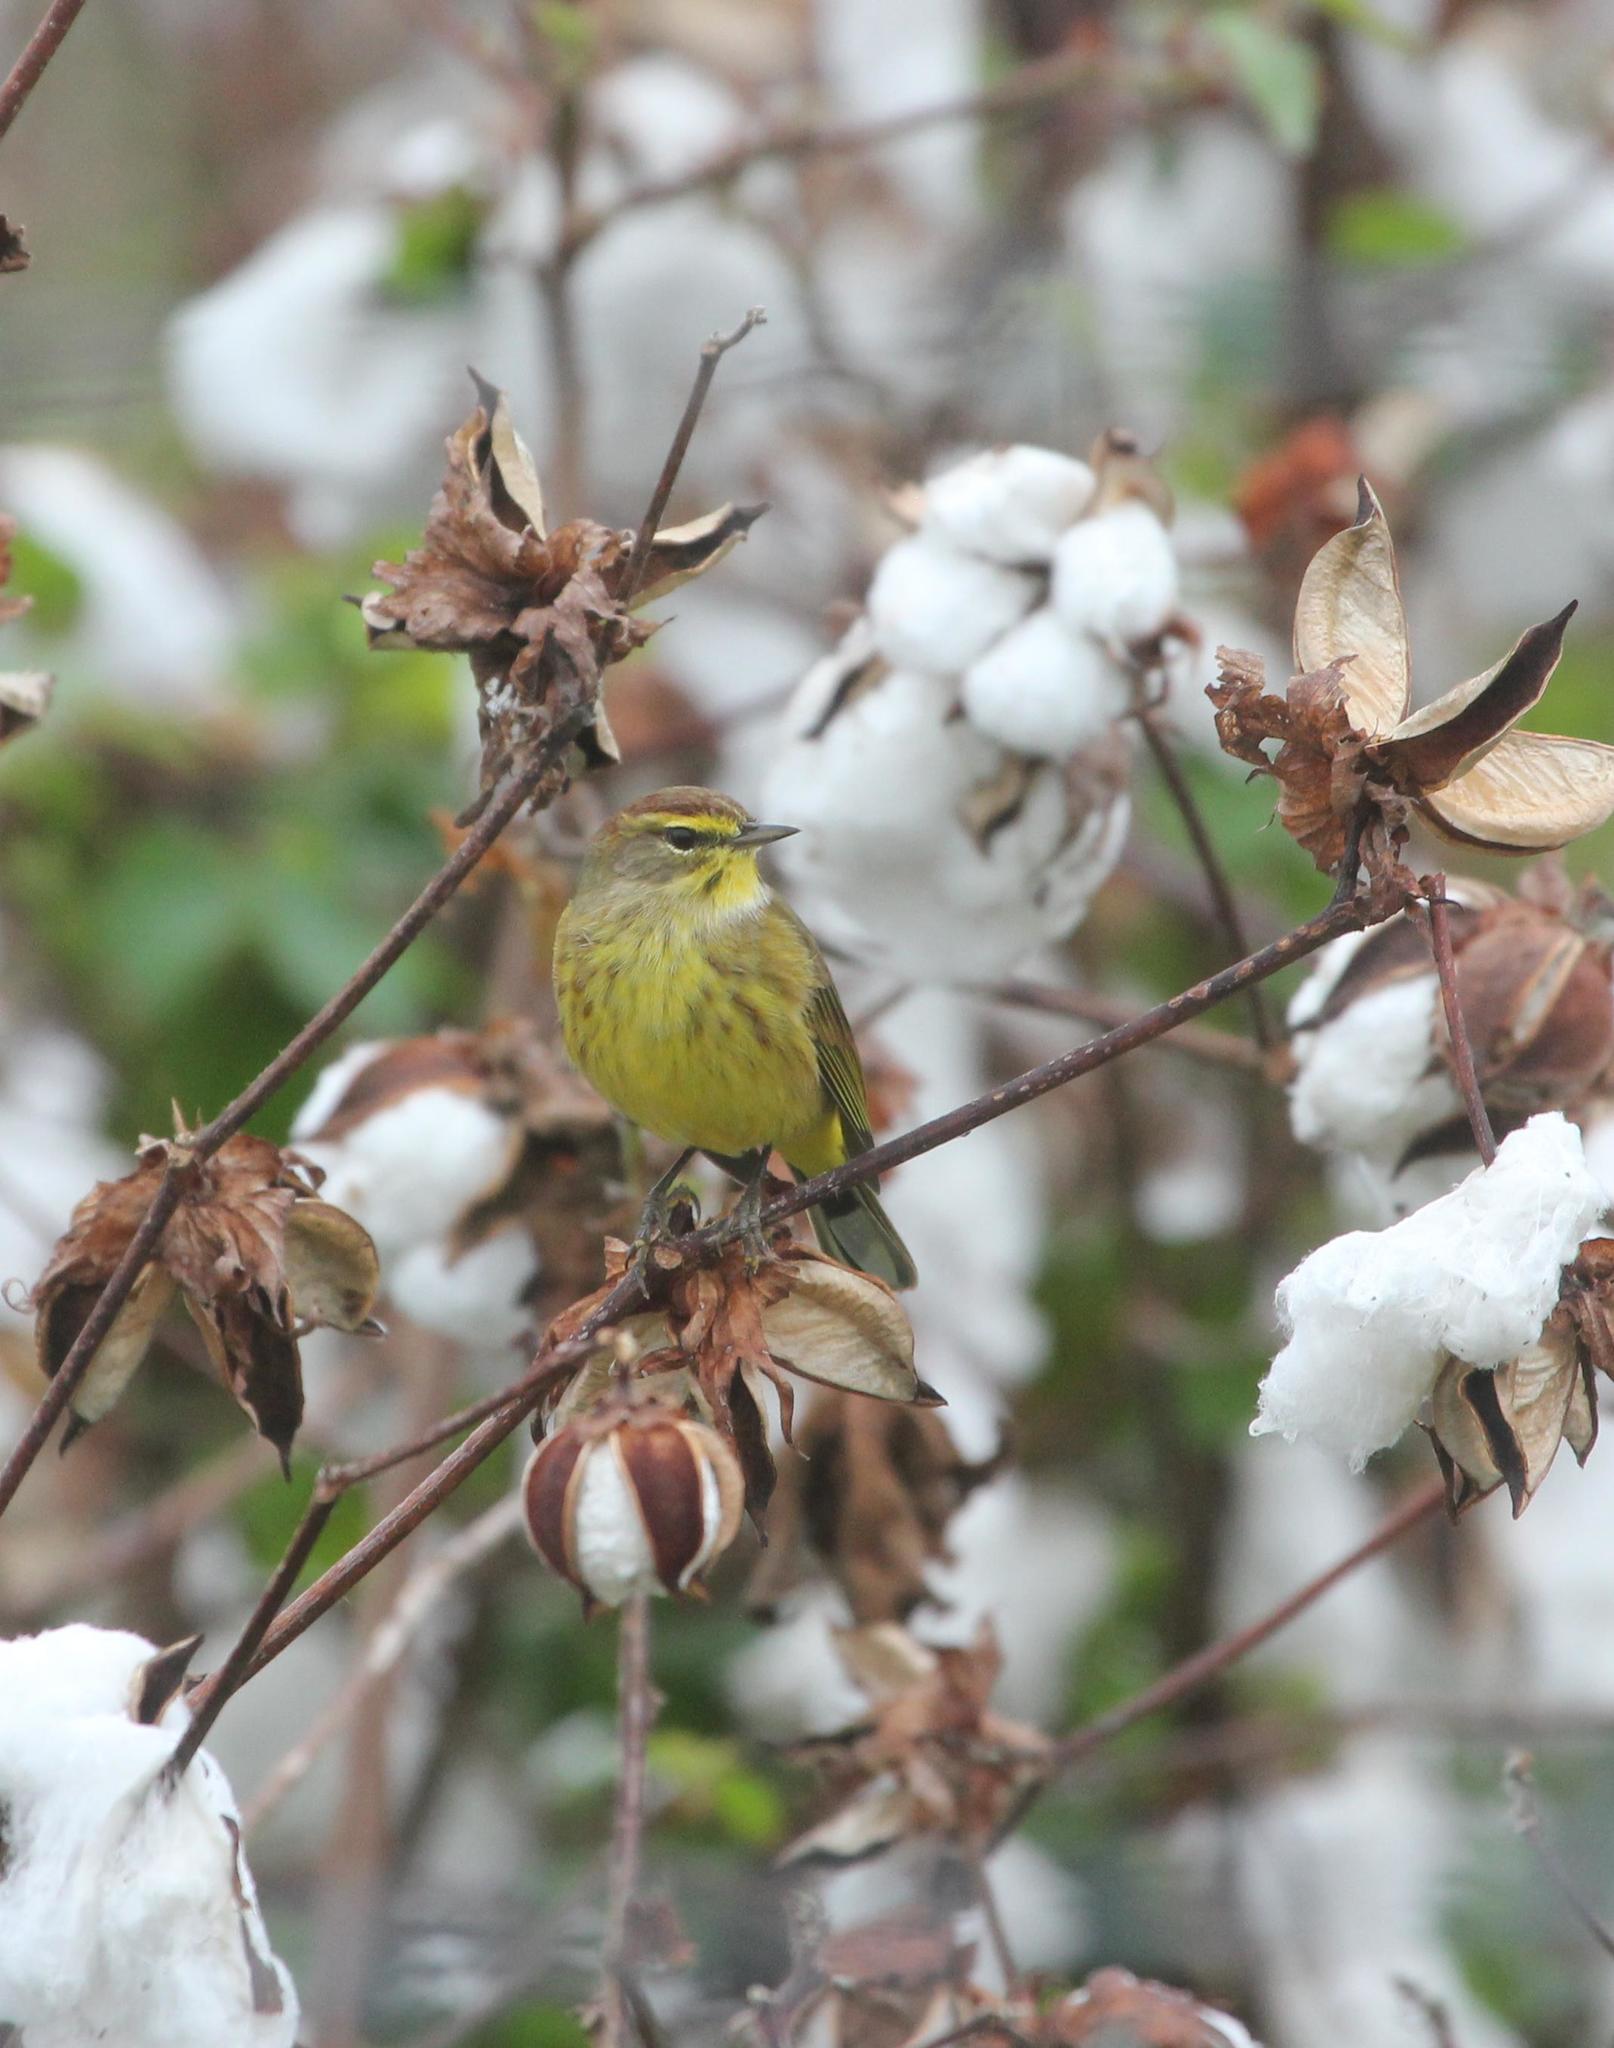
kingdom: Animalia
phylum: Chordata
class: Aves
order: Passeriformes
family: Parulidae
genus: Setophaga
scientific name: Setophaga palmarum
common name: Palm warbler
